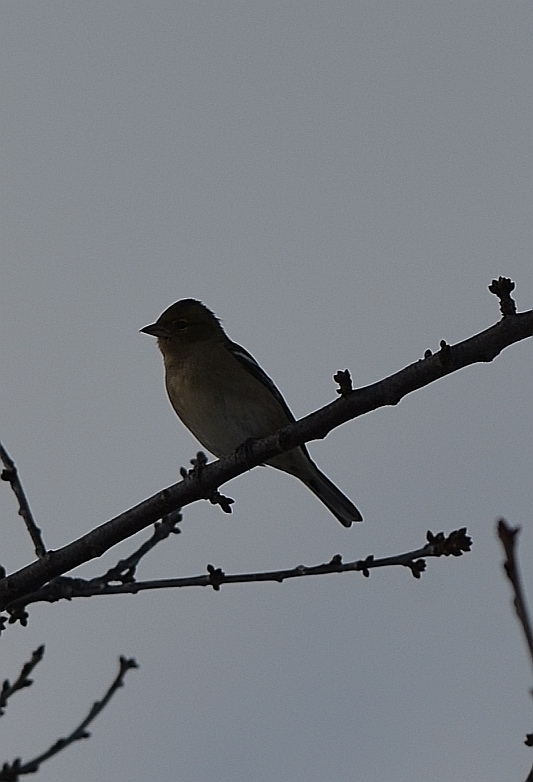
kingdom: Animalia
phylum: Chordata
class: Aves
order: Passeriformes
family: Fringillidae
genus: Fringilla
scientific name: Fringilla coelebs
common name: Common chaffinch
